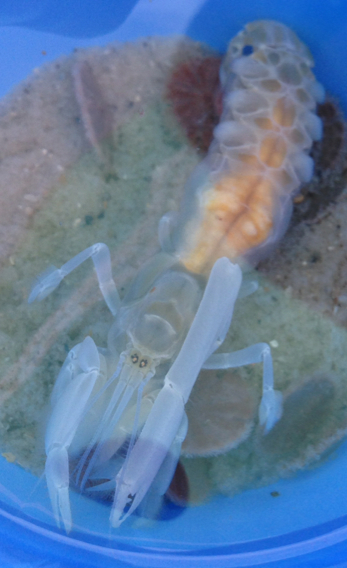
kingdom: Animalia
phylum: Arthropoda
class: Malacostraca
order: Decapoda
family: Callichiridae
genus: Callichirus
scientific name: Callichirus islagrande
